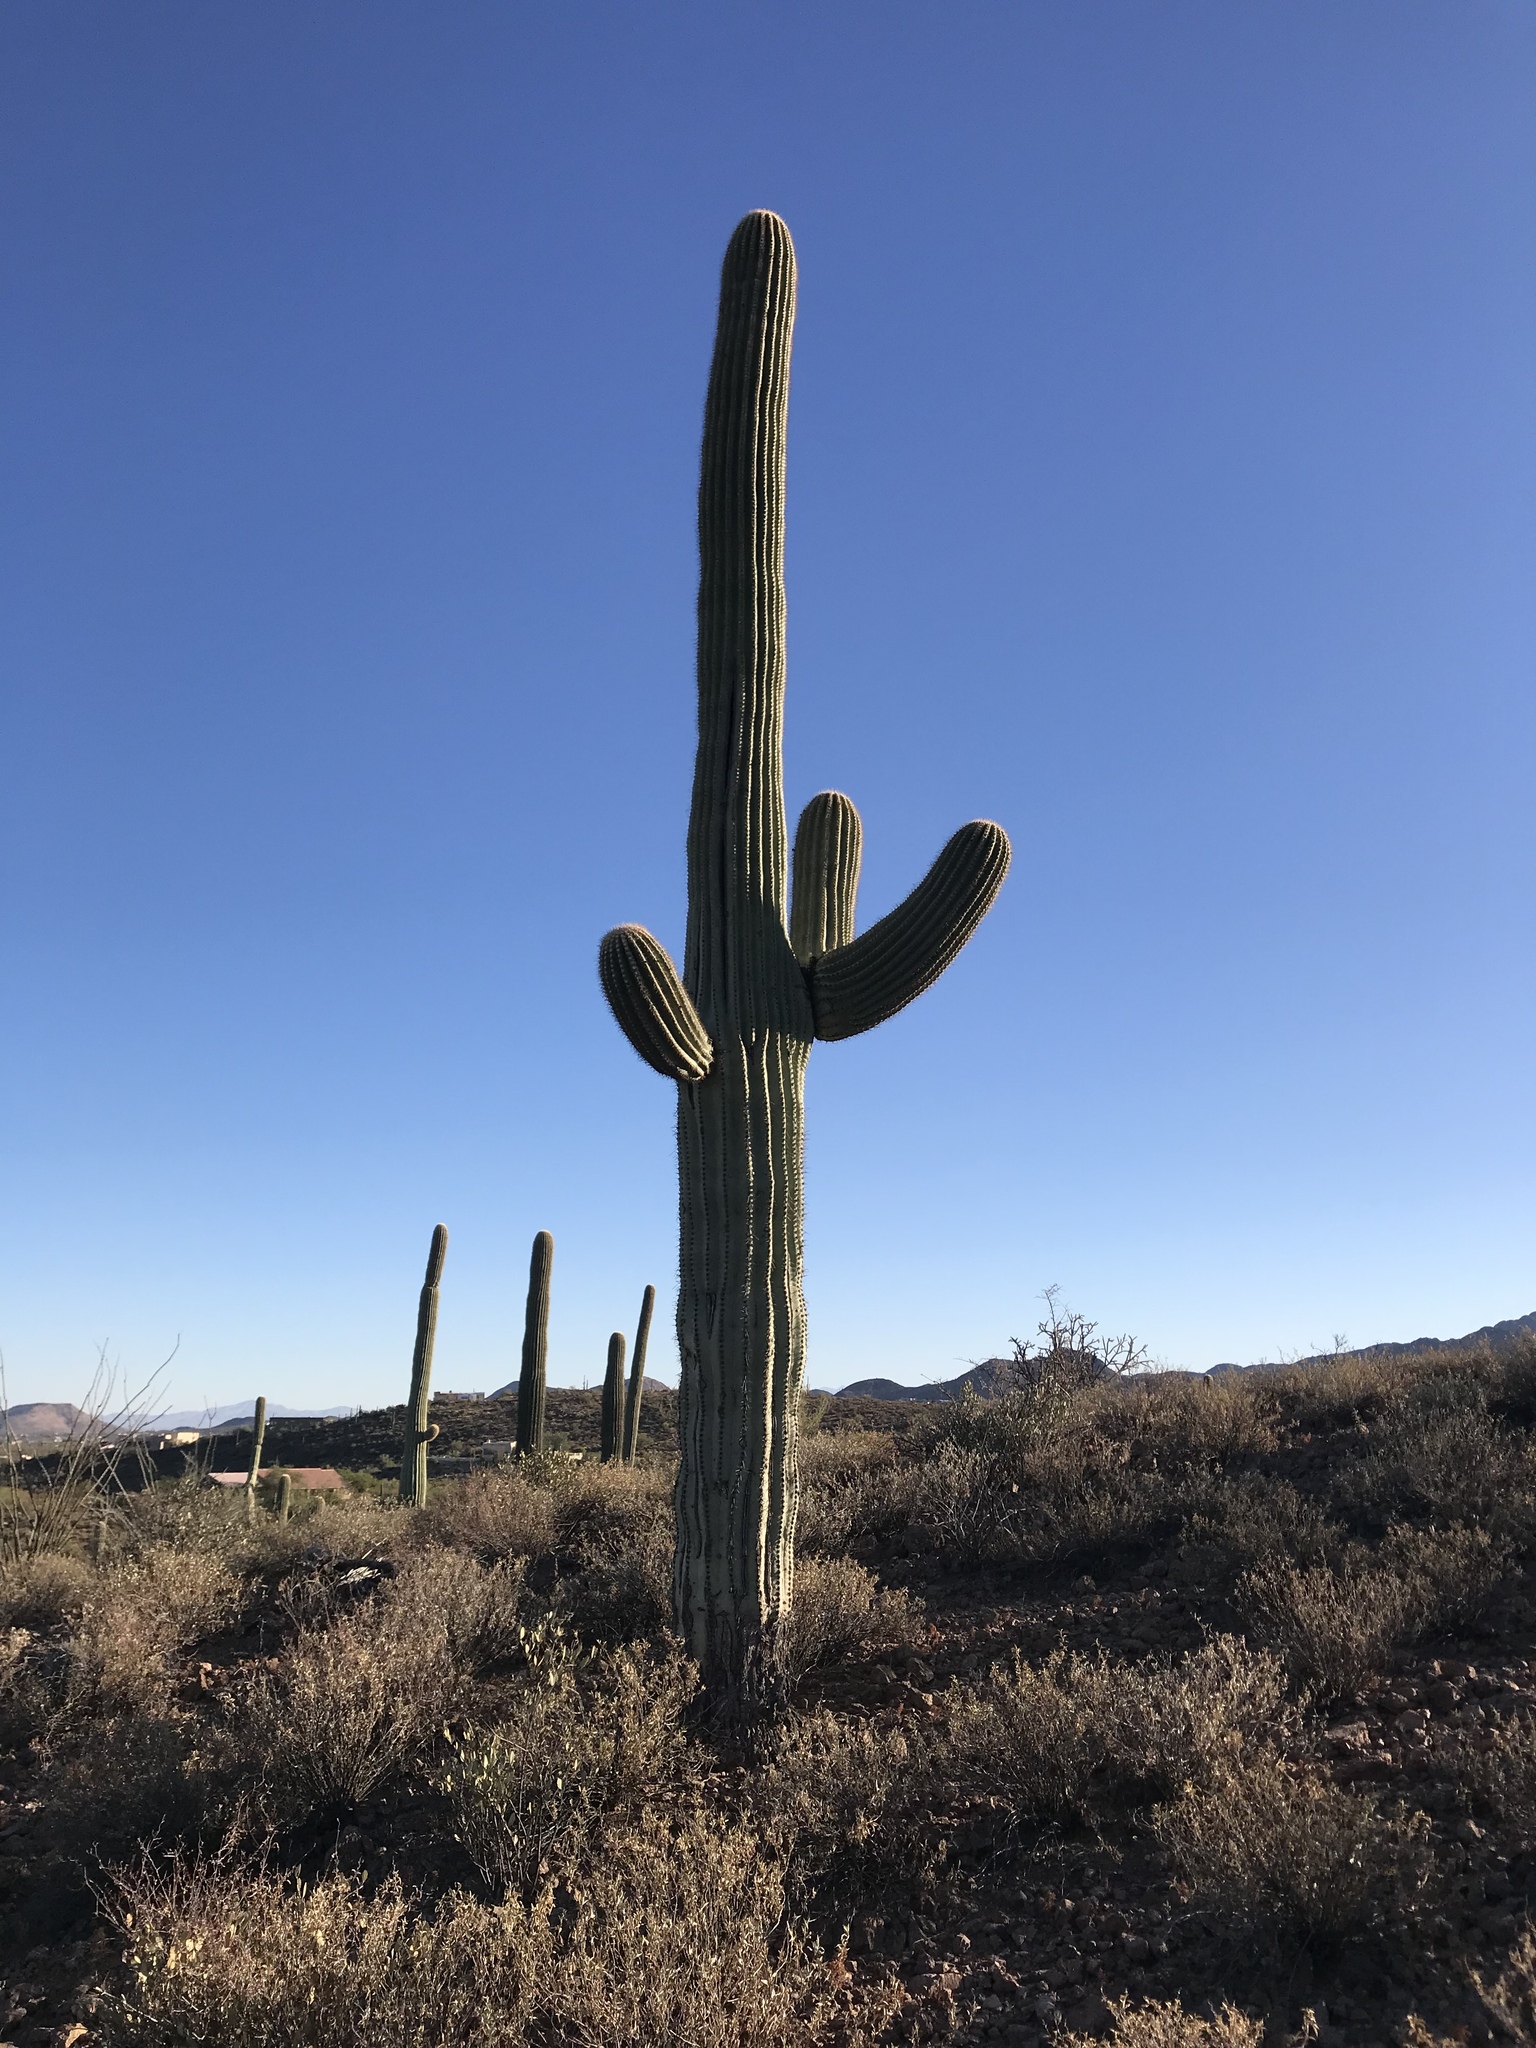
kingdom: Plantae
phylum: Tracheophyta
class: Magnoliopsida
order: Caryophyllales
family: Cactaceae
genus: Carnegiea
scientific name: Carnegiea gigantea
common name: Saguaro
